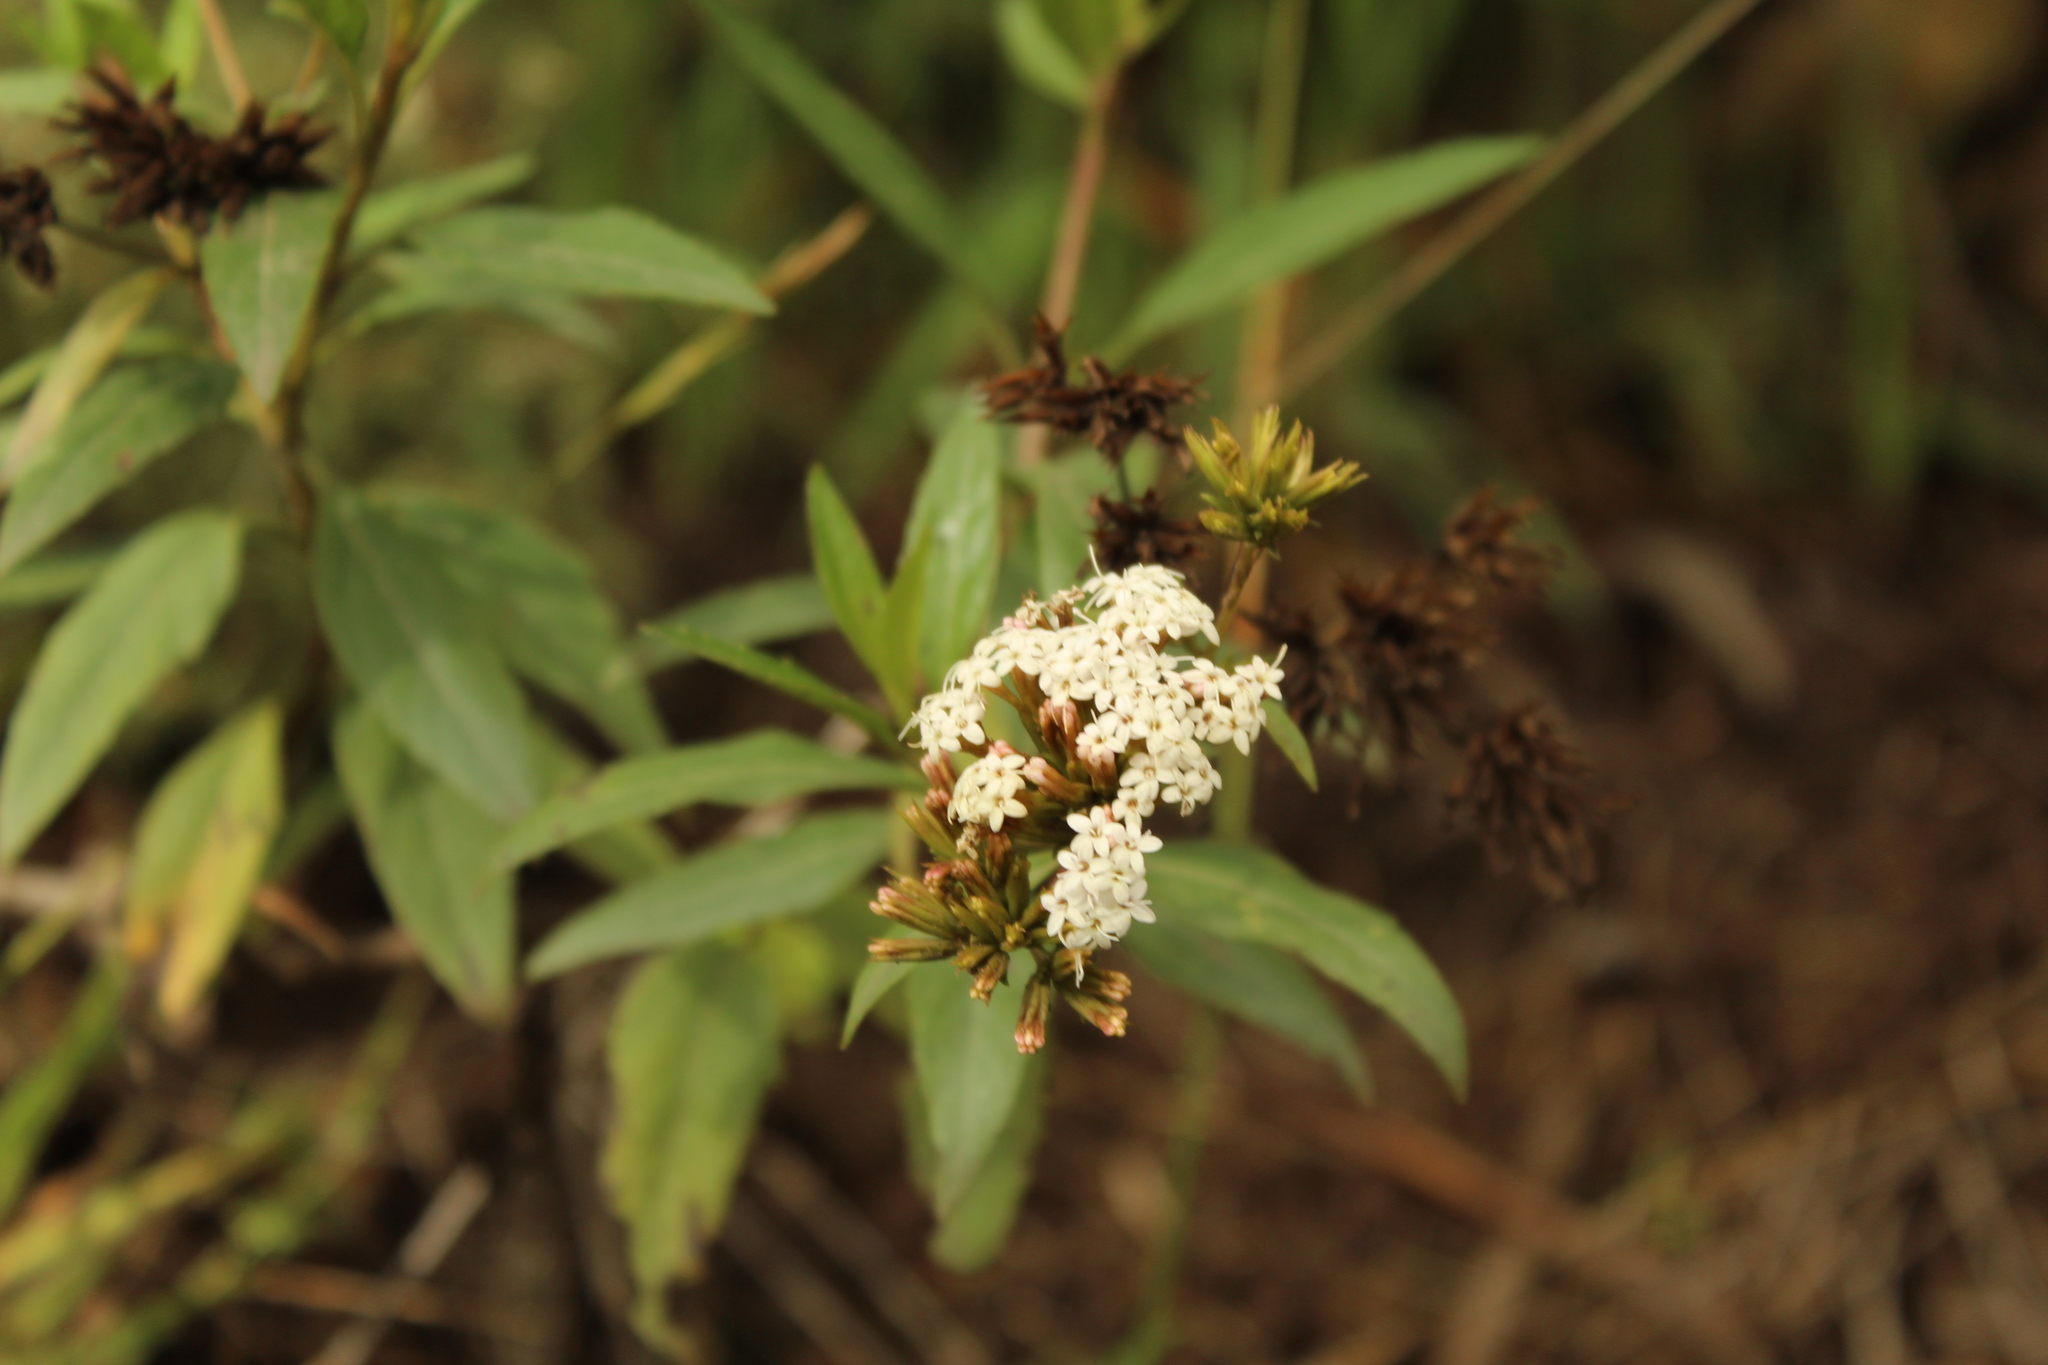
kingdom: Plantae
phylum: Tracheophyta
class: Magnoliopsida
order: Asterales
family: Asteraceae
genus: Stevia
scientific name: Stevia lucida
